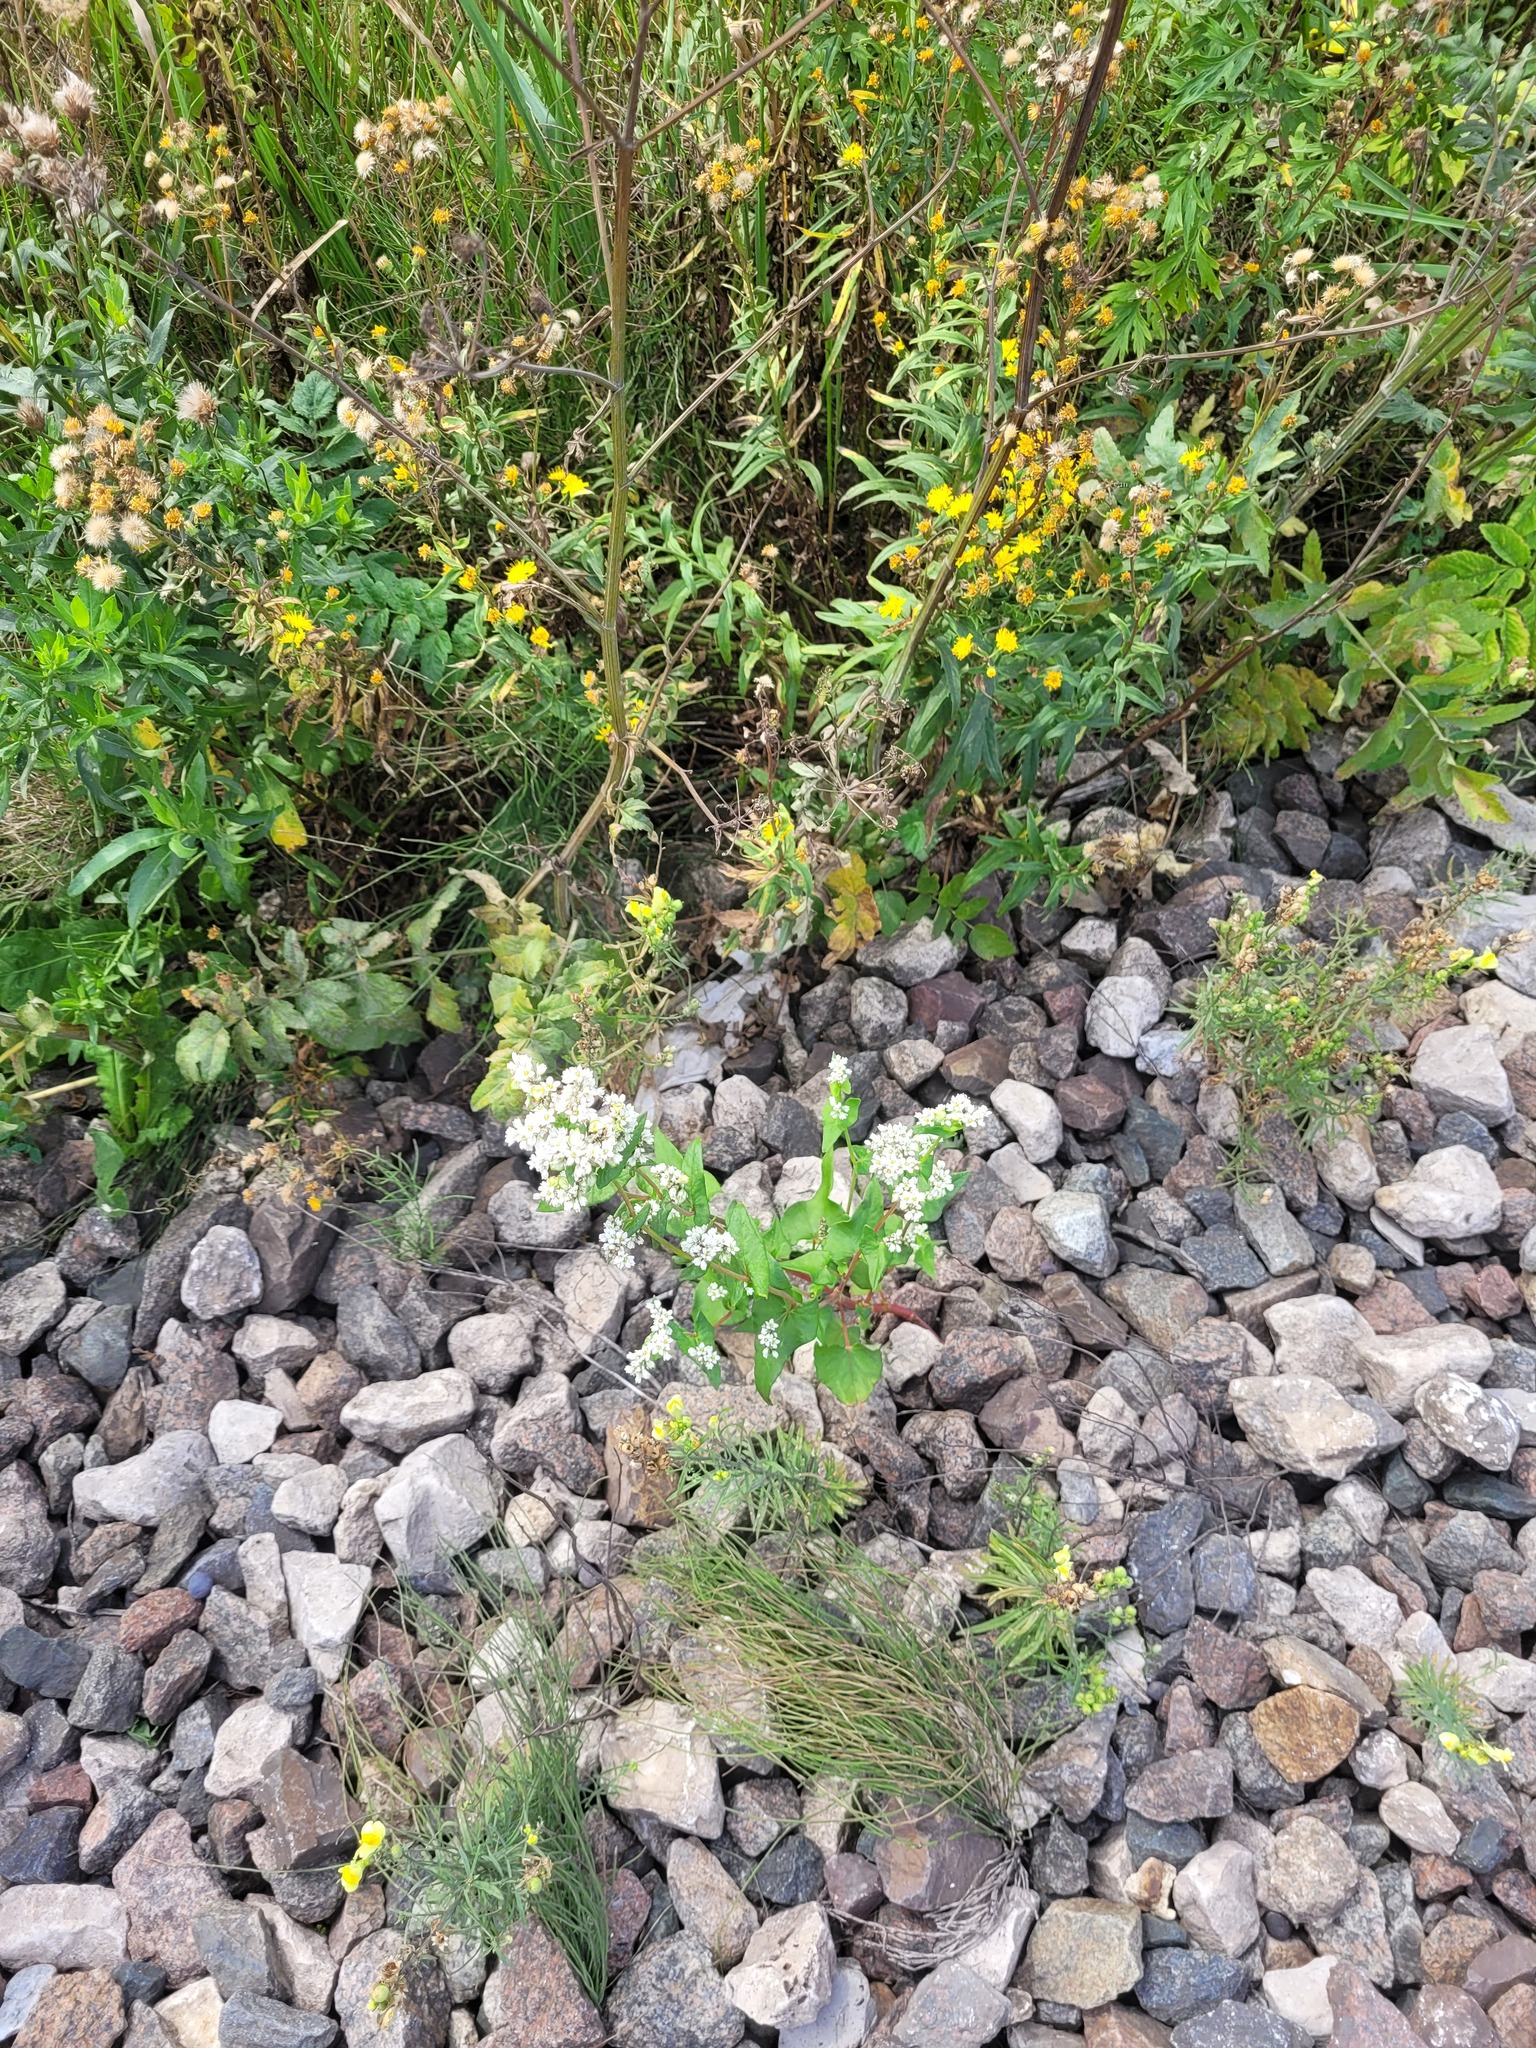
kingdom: Plantae
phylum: Tracheophyta
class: Magnoliopsida
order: Caryophyllales
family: Polygonaceae
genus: Fagopyrum
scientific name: Fagopyrum esculentum
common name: Buckwheat
